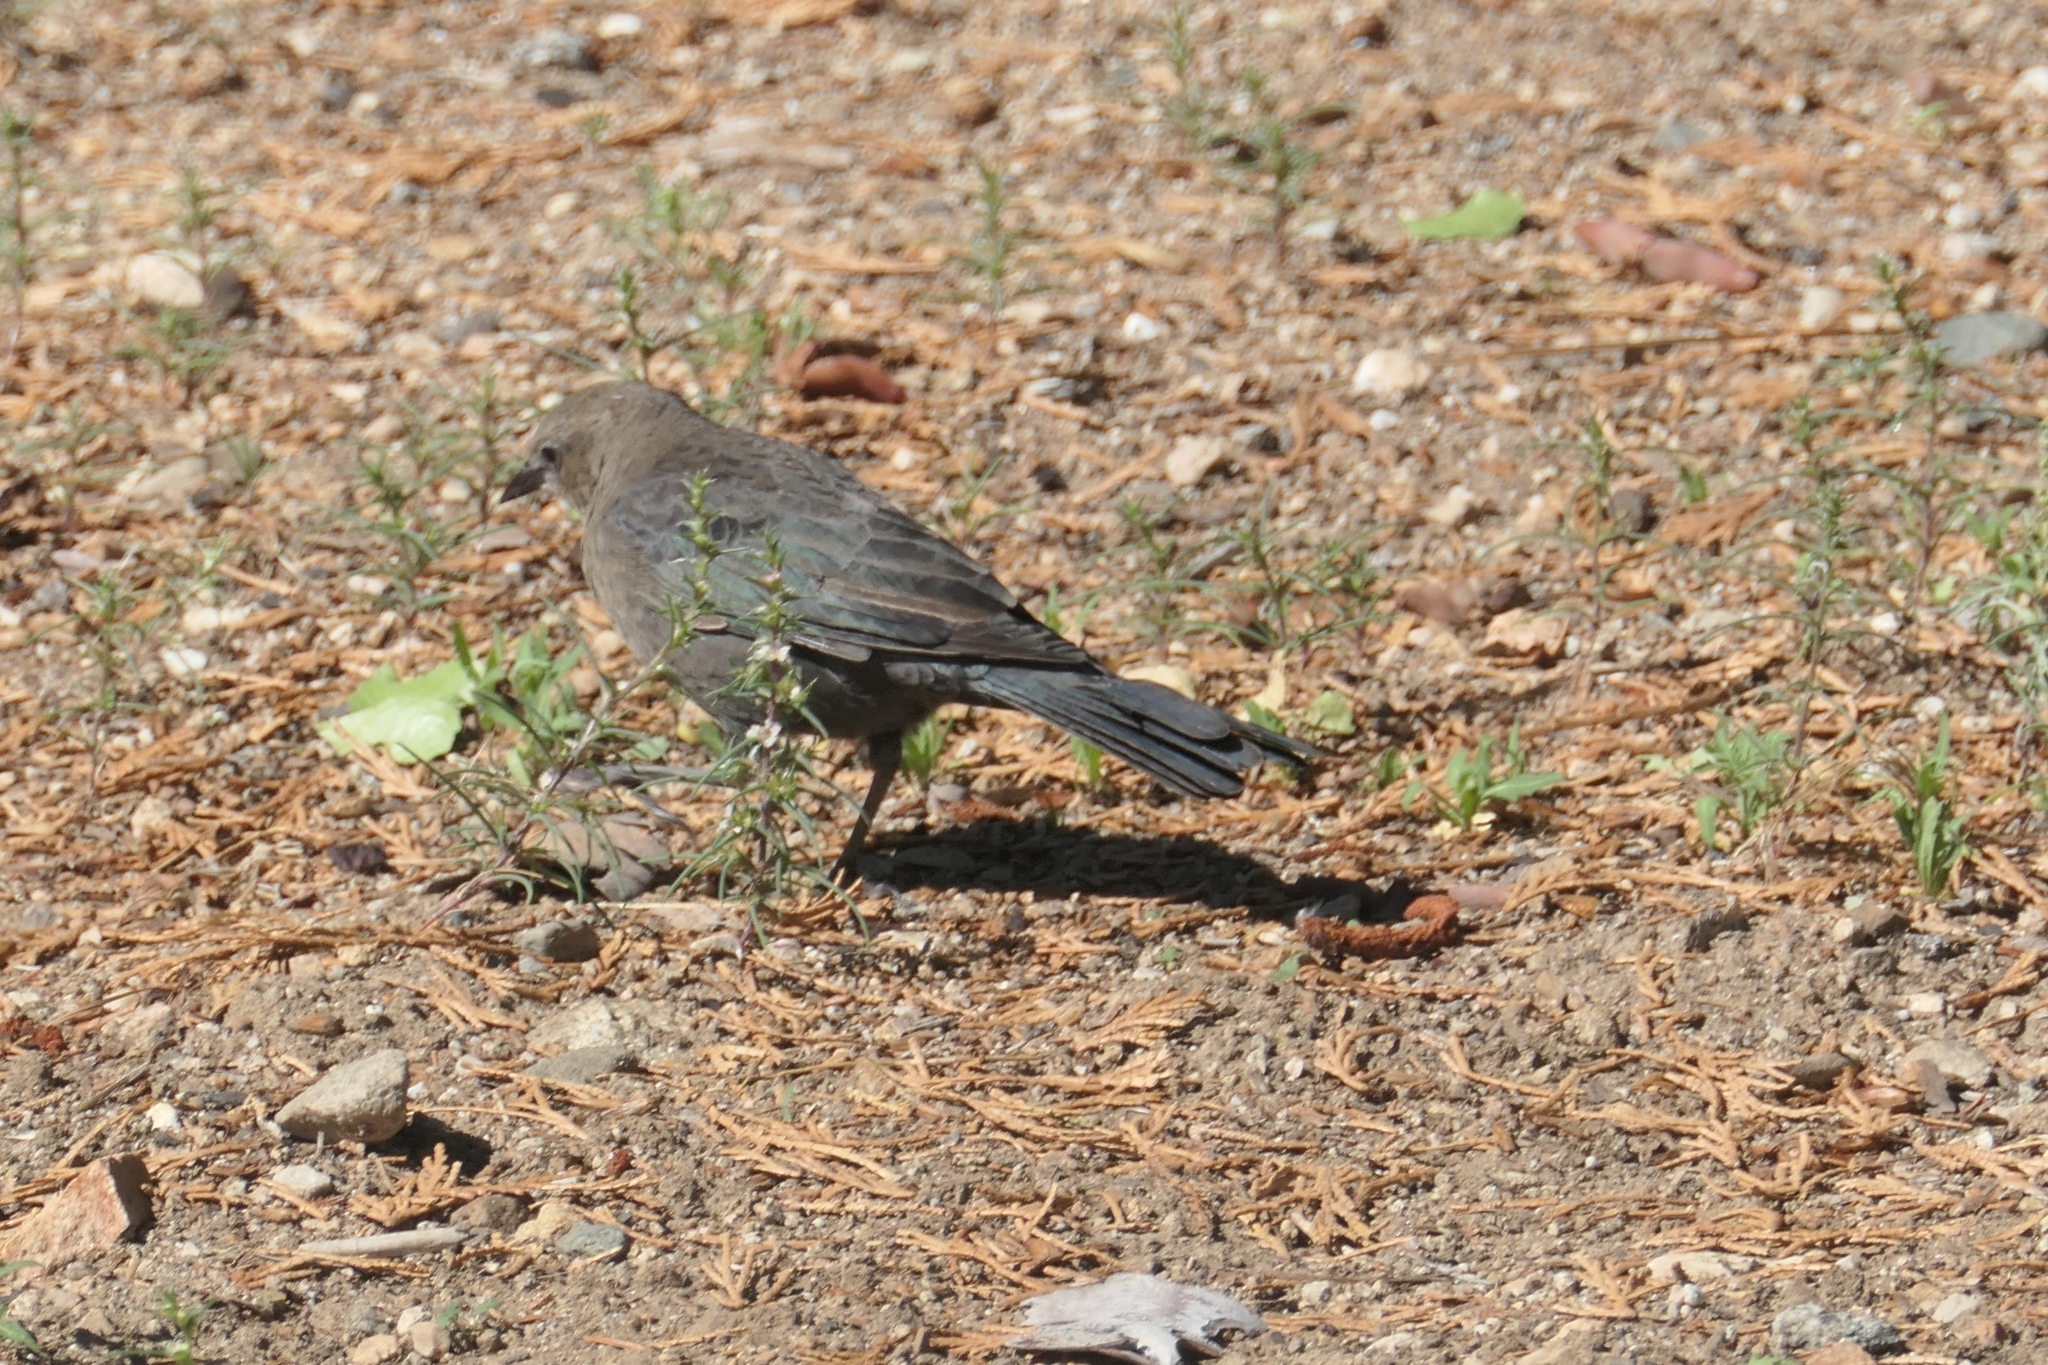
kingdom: Animalia
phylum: Chordata
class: Aves
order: Passeriformes
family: Icteridae
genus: Euphagus
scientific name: Euphagus cyanocephalus
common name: Brewer's blackbird
